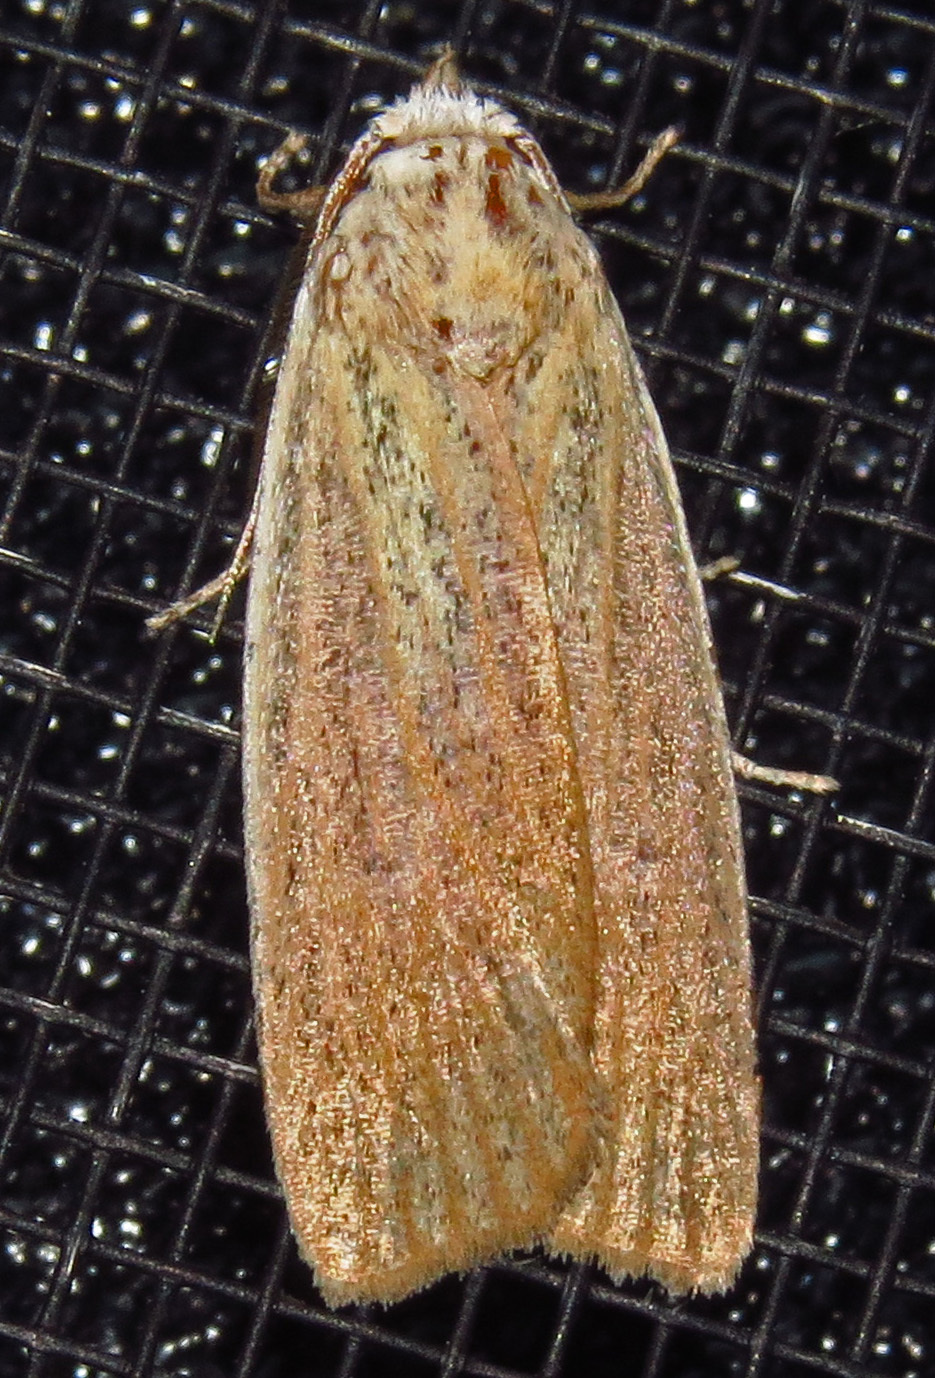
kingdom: Animalia
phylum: Arthropoda
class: Insecta
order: Lepidoptera
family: Erebidae
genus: Palpidia
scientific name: Palpidia pallidior
